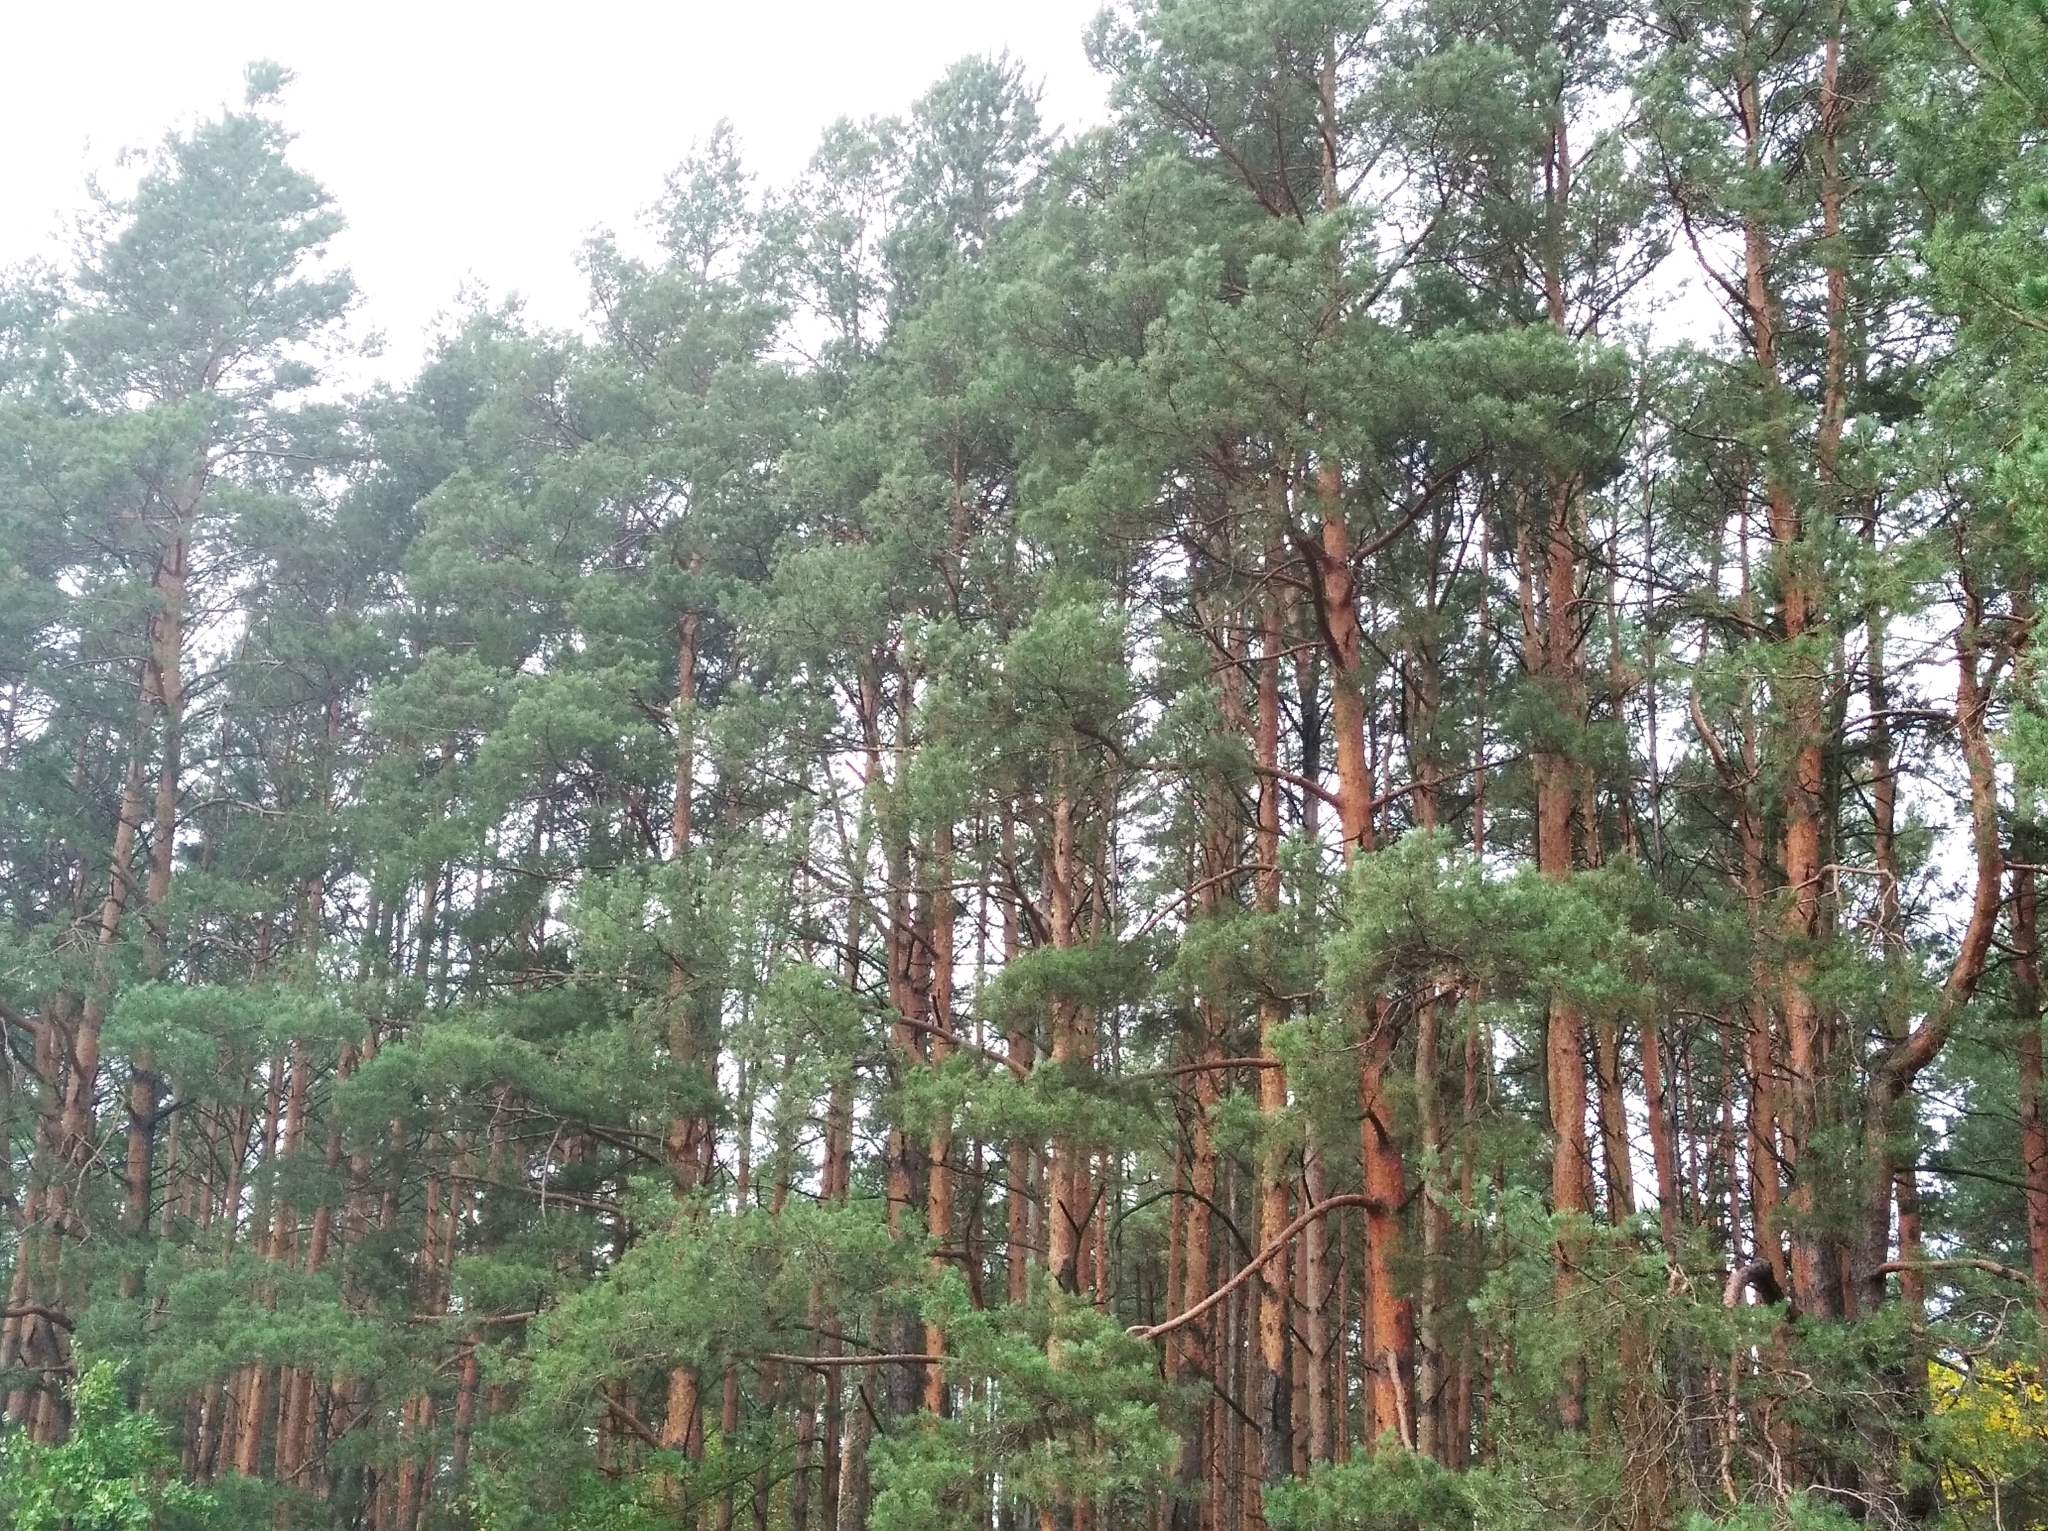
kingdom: Plantae
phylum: Tracheophyta
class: Pinopsida
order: Pinales
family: Pinaceae
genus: Pinus
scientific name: Pinus sylvestris
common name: Scots pine
